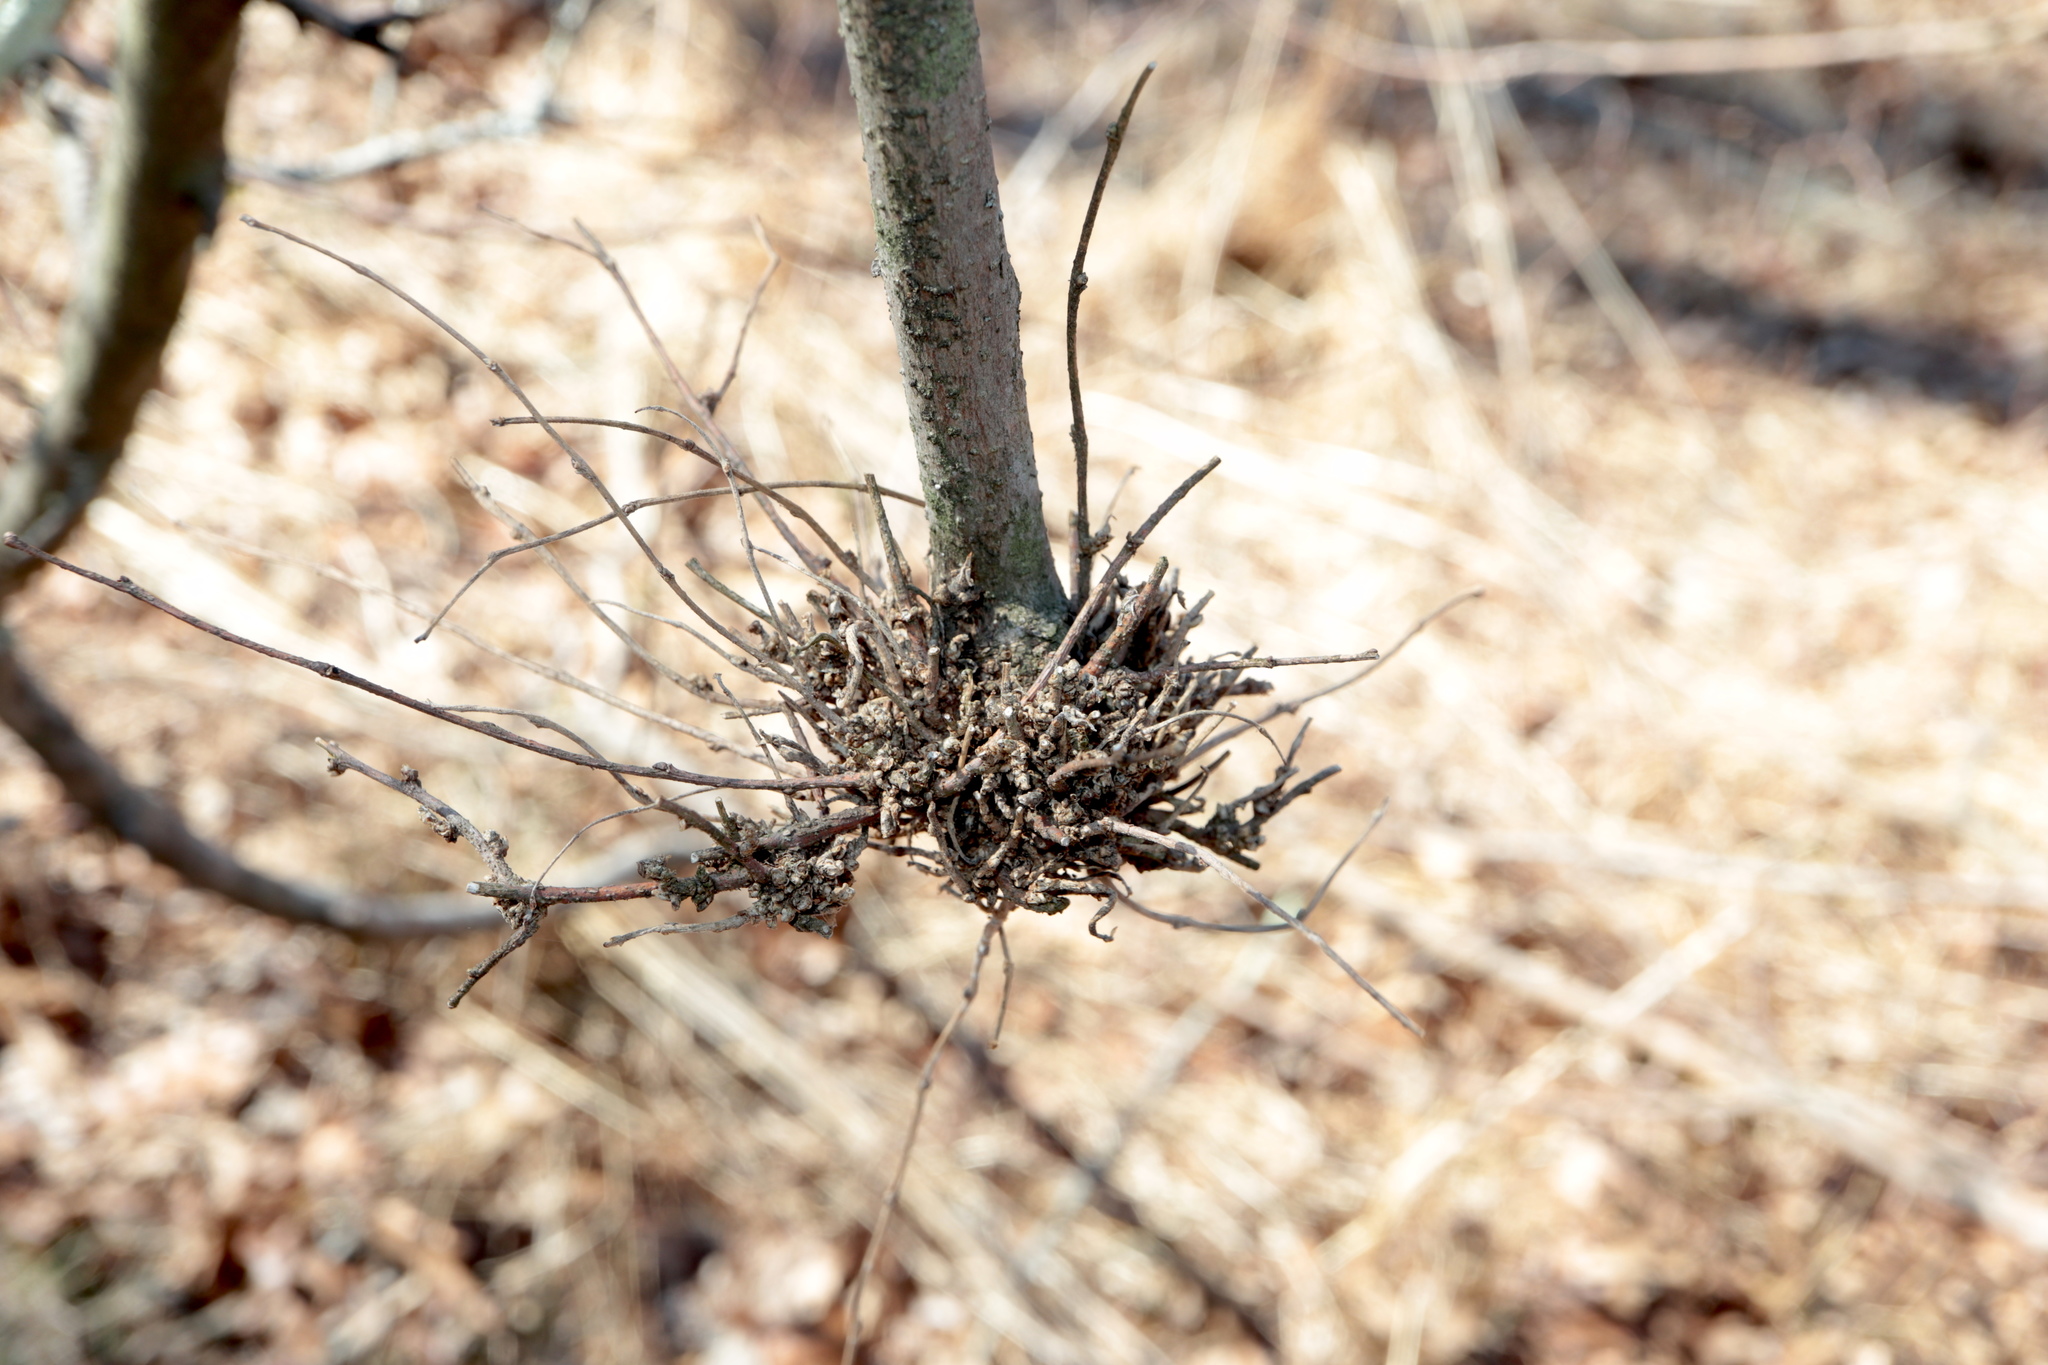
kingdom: Animalia
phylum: Arthropoda
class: Arachnida
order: Trombidiformes
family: Eriophyidae
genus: Aceria
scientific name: Aceria
